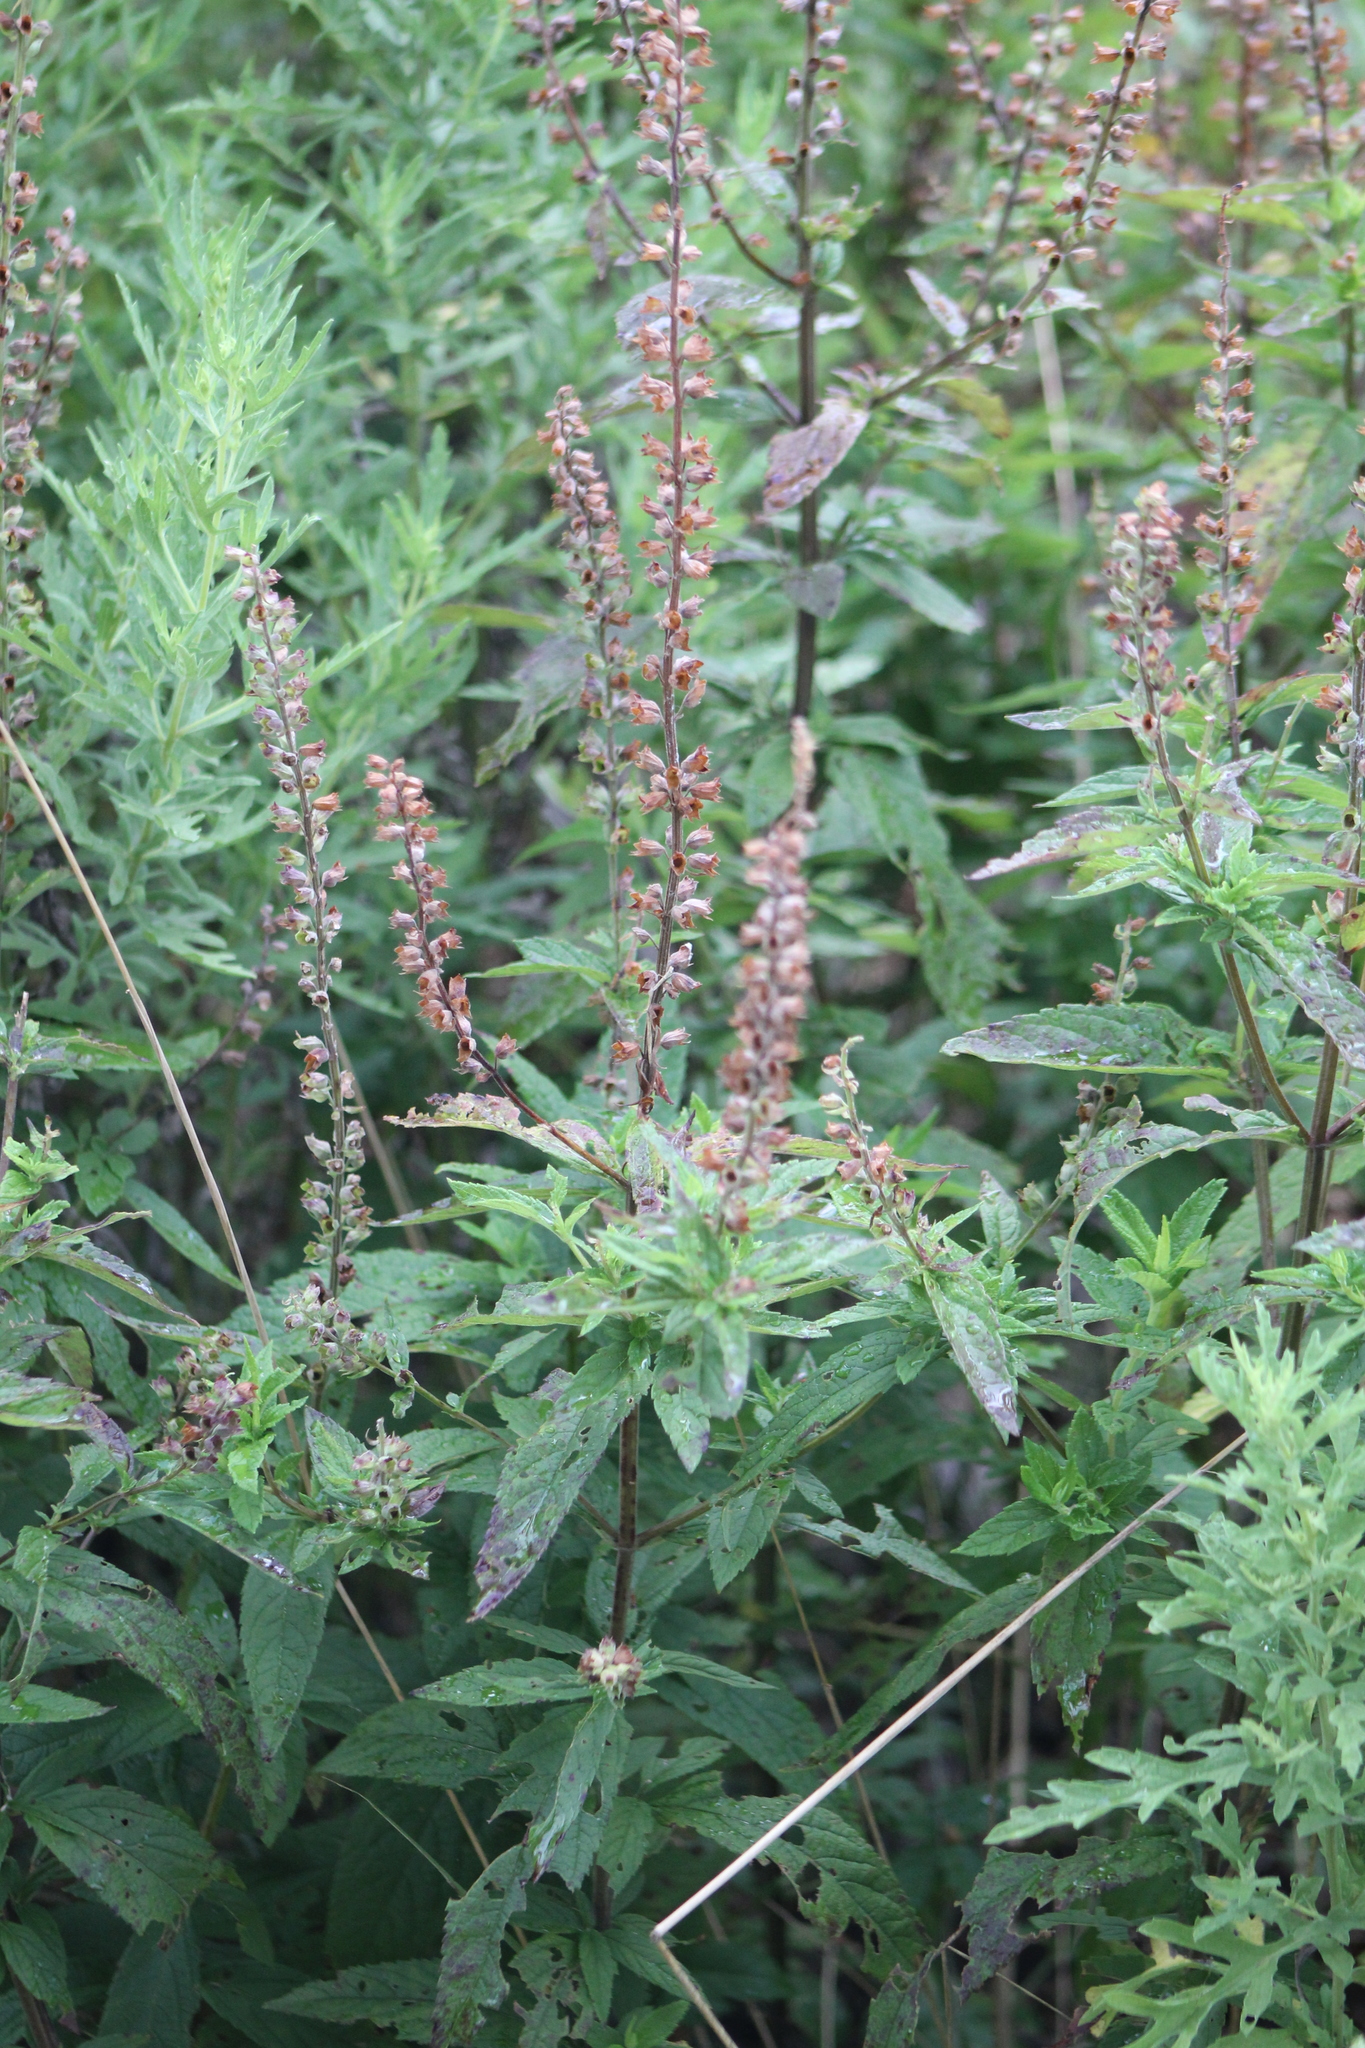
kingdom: Plantae
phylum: Tracheophyta
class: Magnoliopsida
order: Lamiales
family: Lamiaceae
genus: Teucrium
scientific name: Teucrium canadense
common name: American germander
